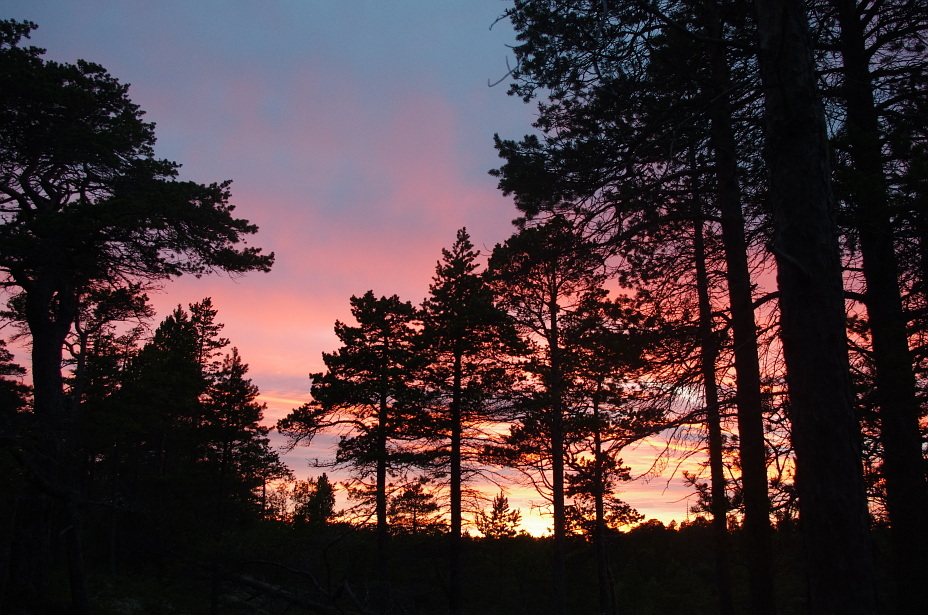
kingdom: Plantae
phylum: Tracheophyta
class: Pinopsida
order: Pinales
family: Pinaceae
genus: Pinus
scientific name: Pinus sylvestris
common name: Scots pine
